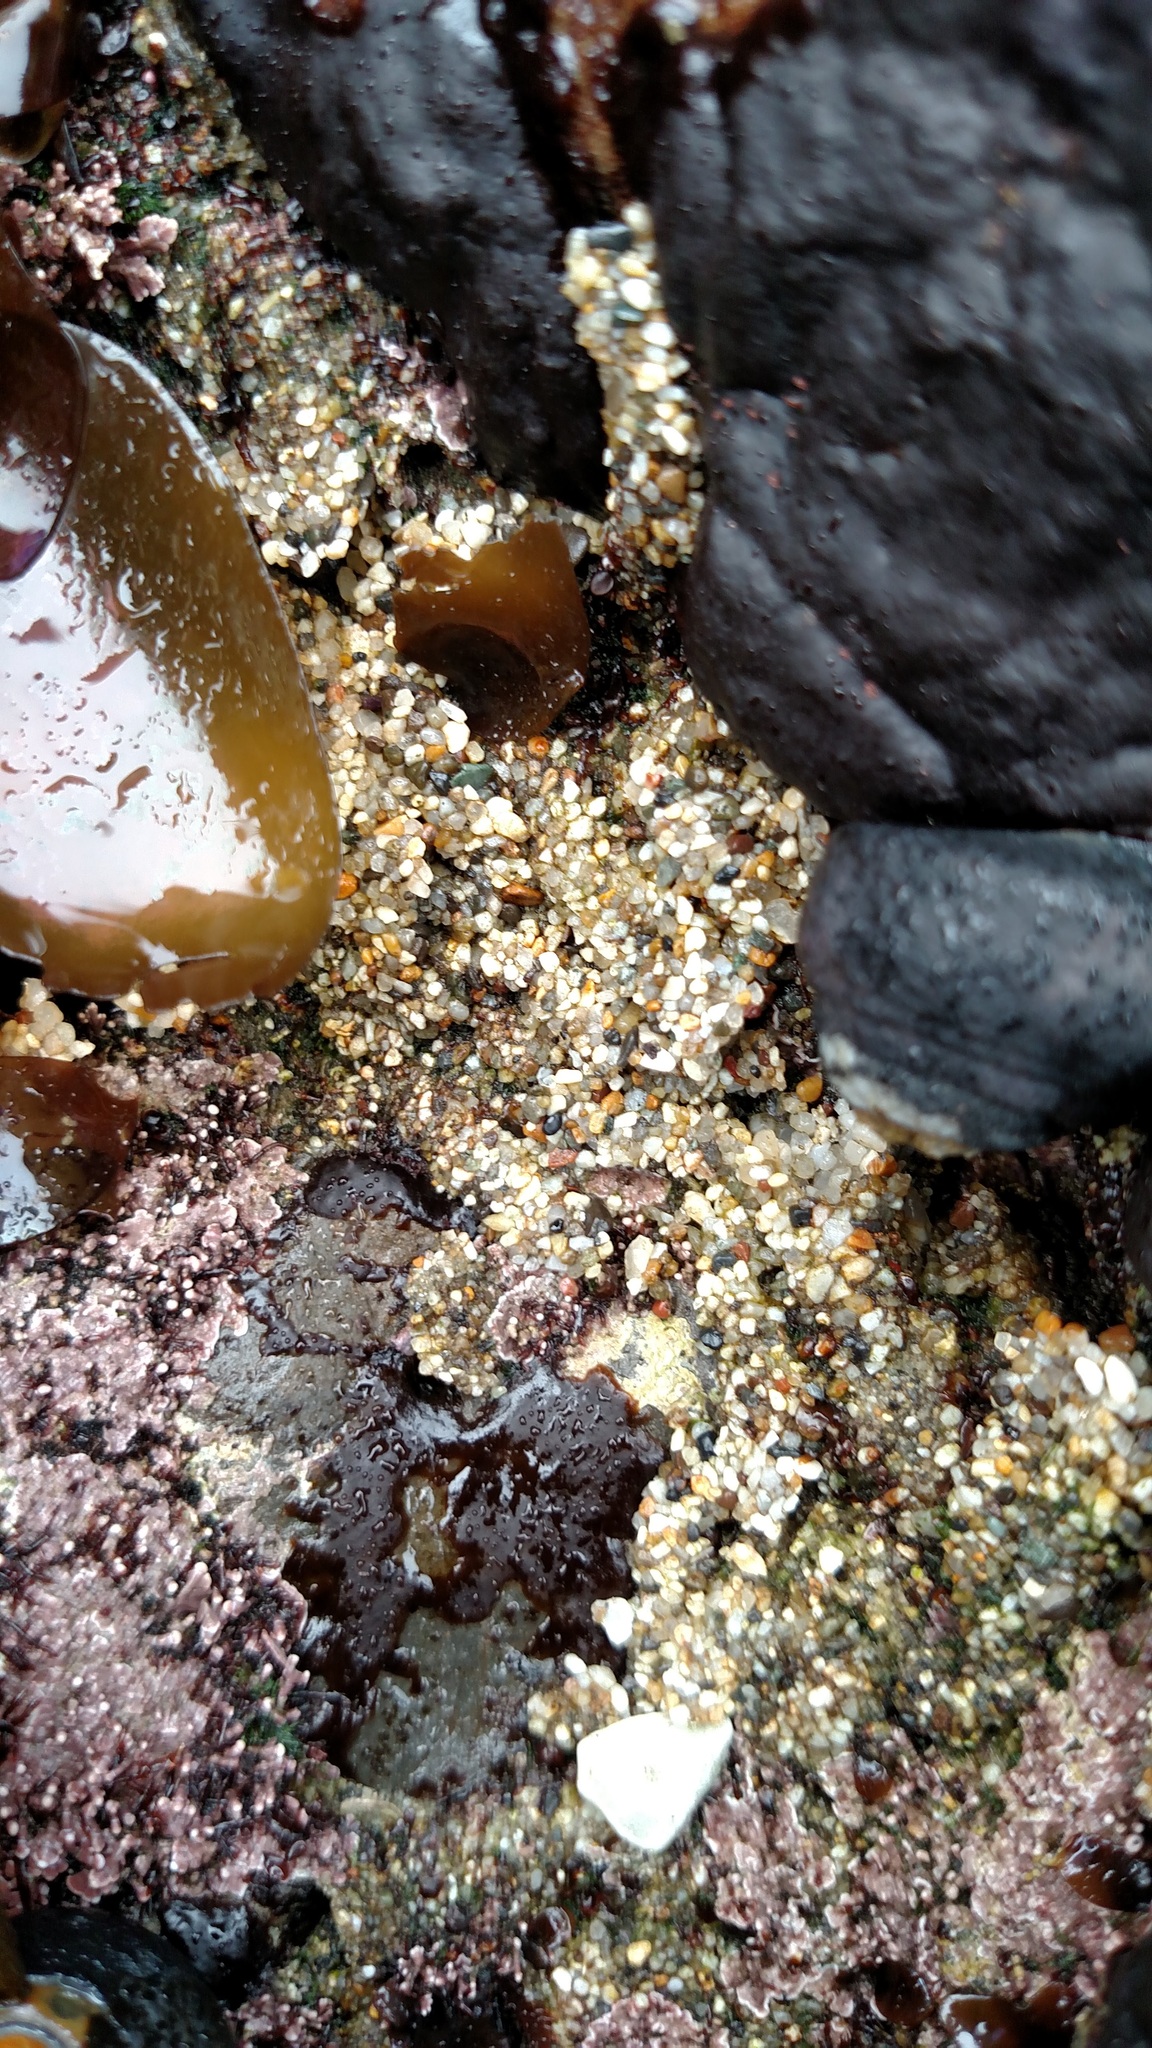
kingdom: Animalia
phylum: Annelida
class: Polychaeta
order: Sabellida
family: Sabellariidae
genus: Phragmatopoma
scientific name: Phragmatopoma californica
